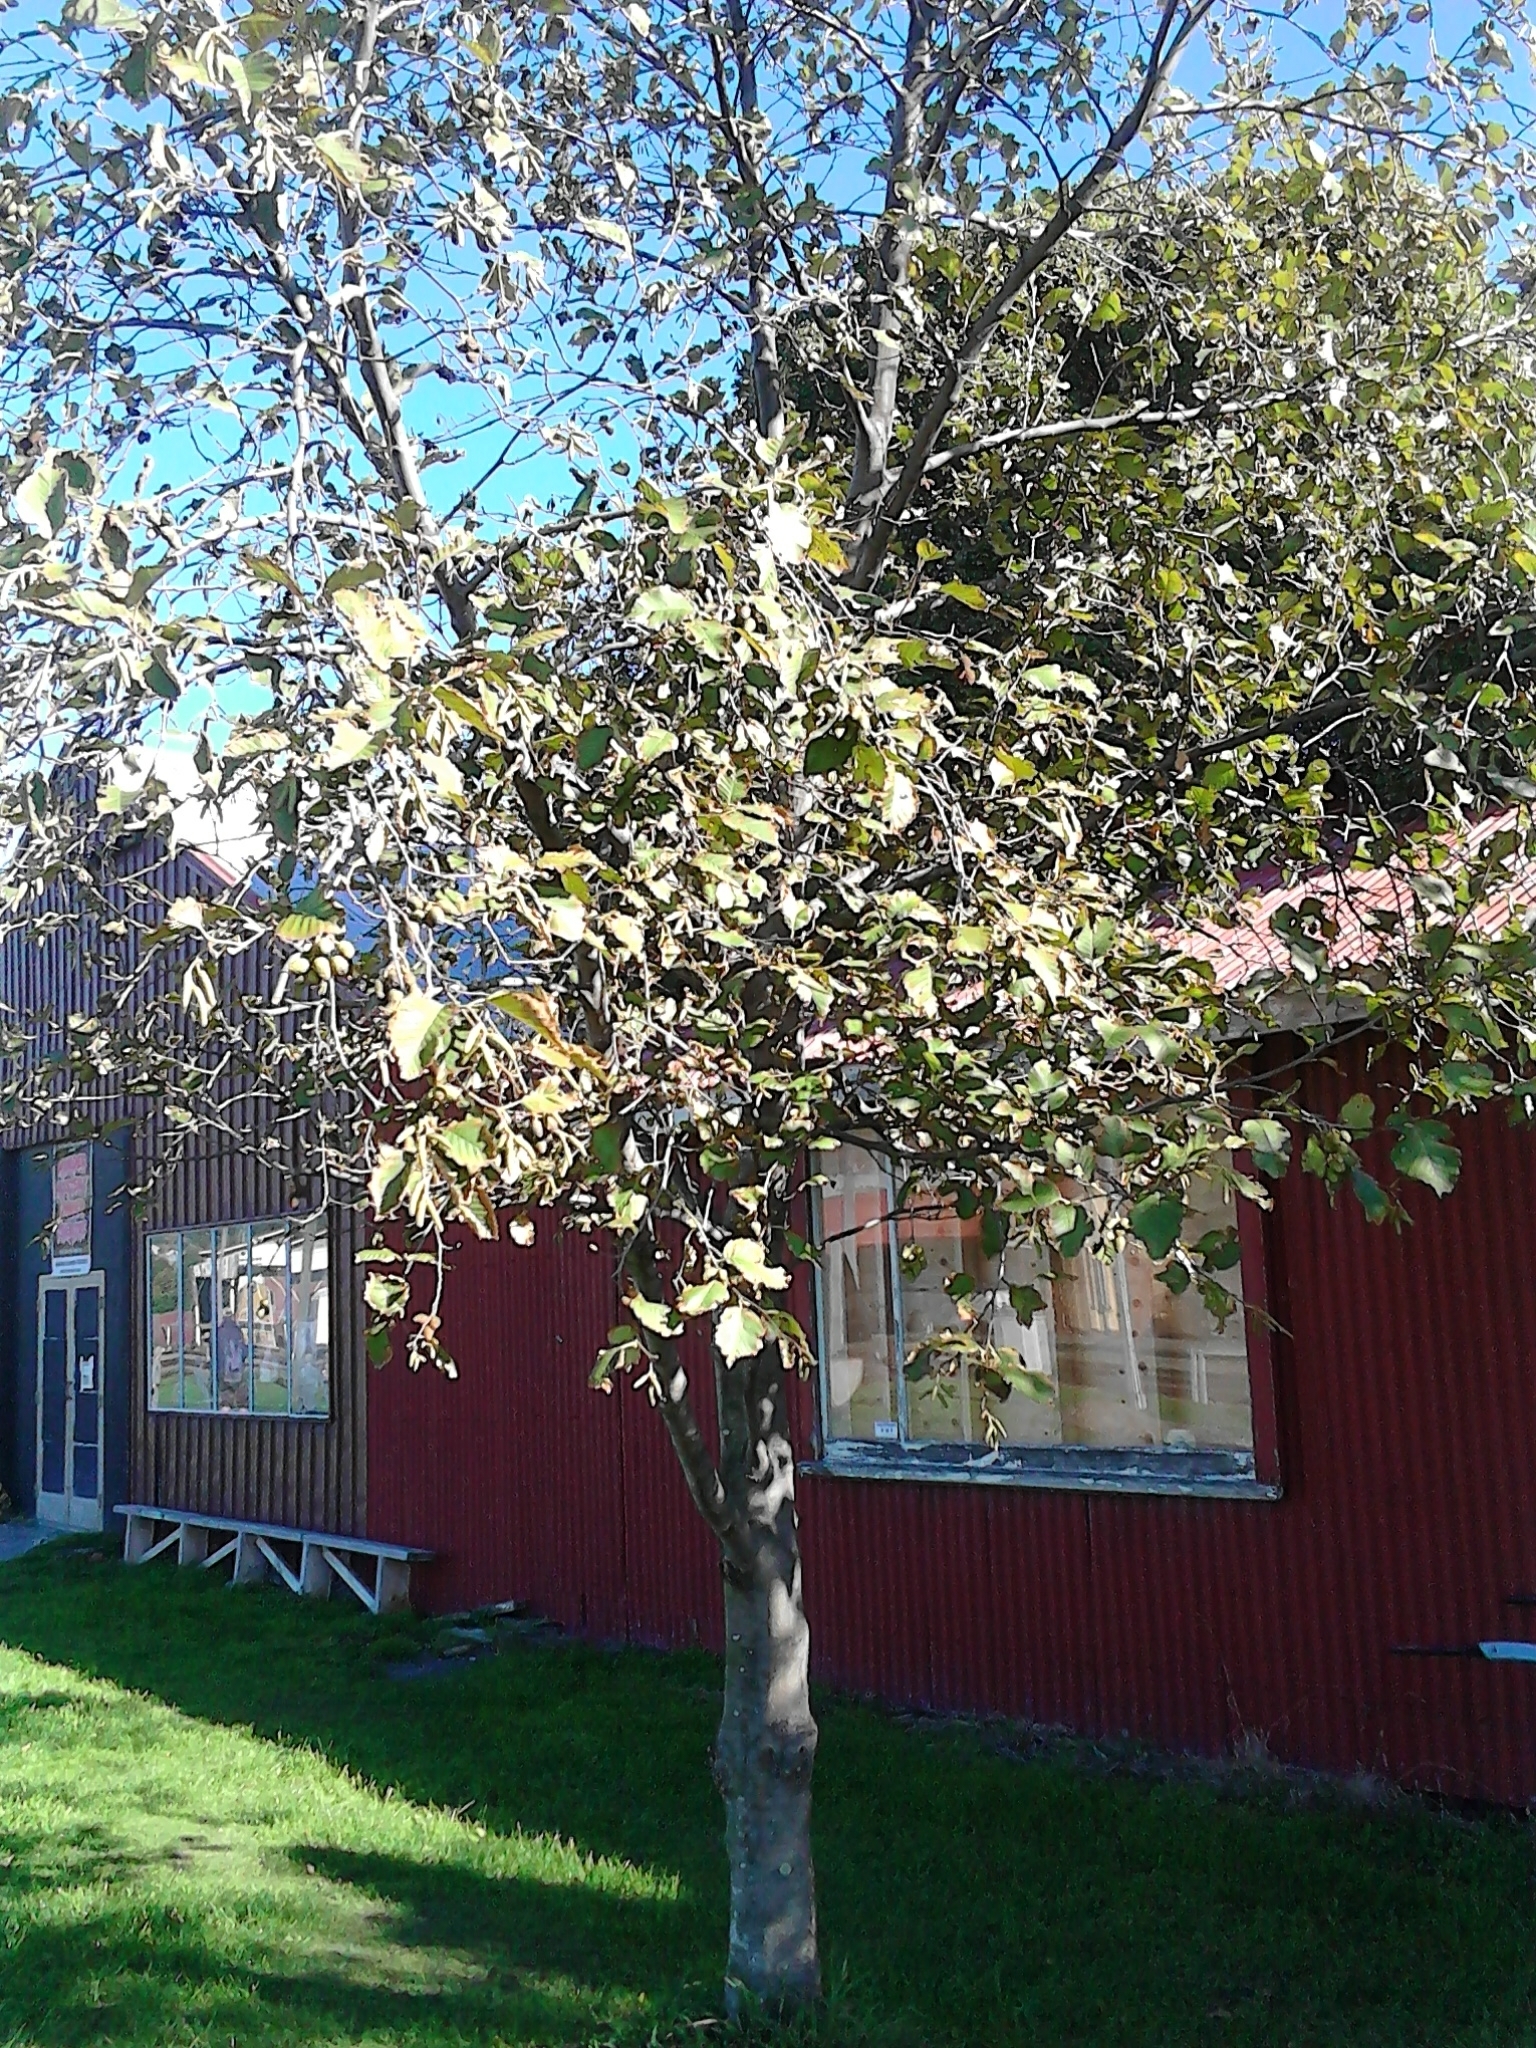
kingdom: Plantae
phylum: Tracheophyta
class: Magnoliopsida
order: Fagales
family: Betulaceae
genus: Alnus
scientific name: Alnus glutinosa
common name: Black alder
